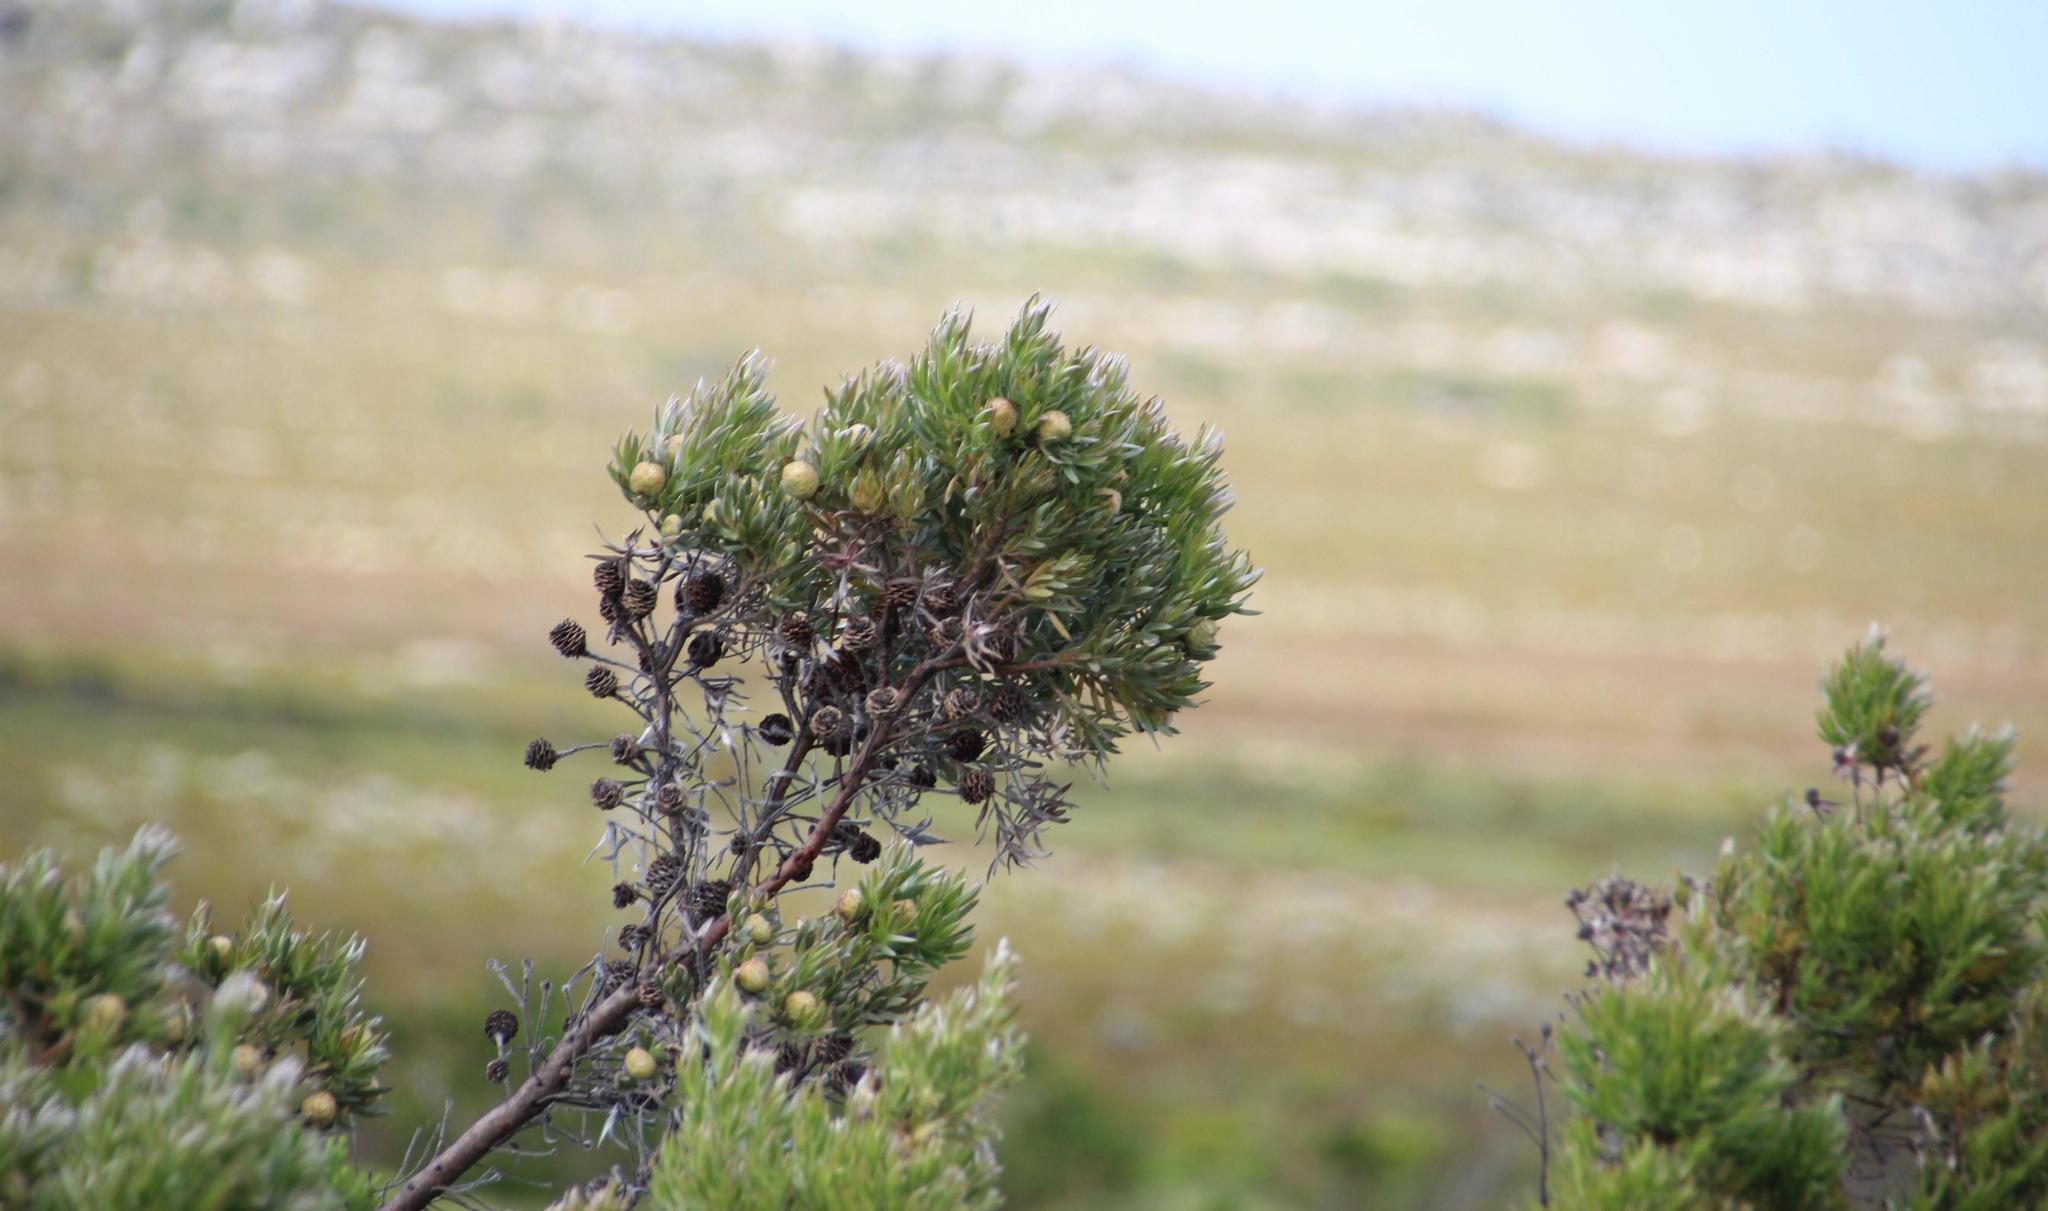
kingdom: Plantae
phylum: Tracheophyta
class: Magnoliopsida
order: Proteales
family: Proteaceae
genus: Leucadendron
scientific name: Leucadendron floridum
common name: Flats conebush
